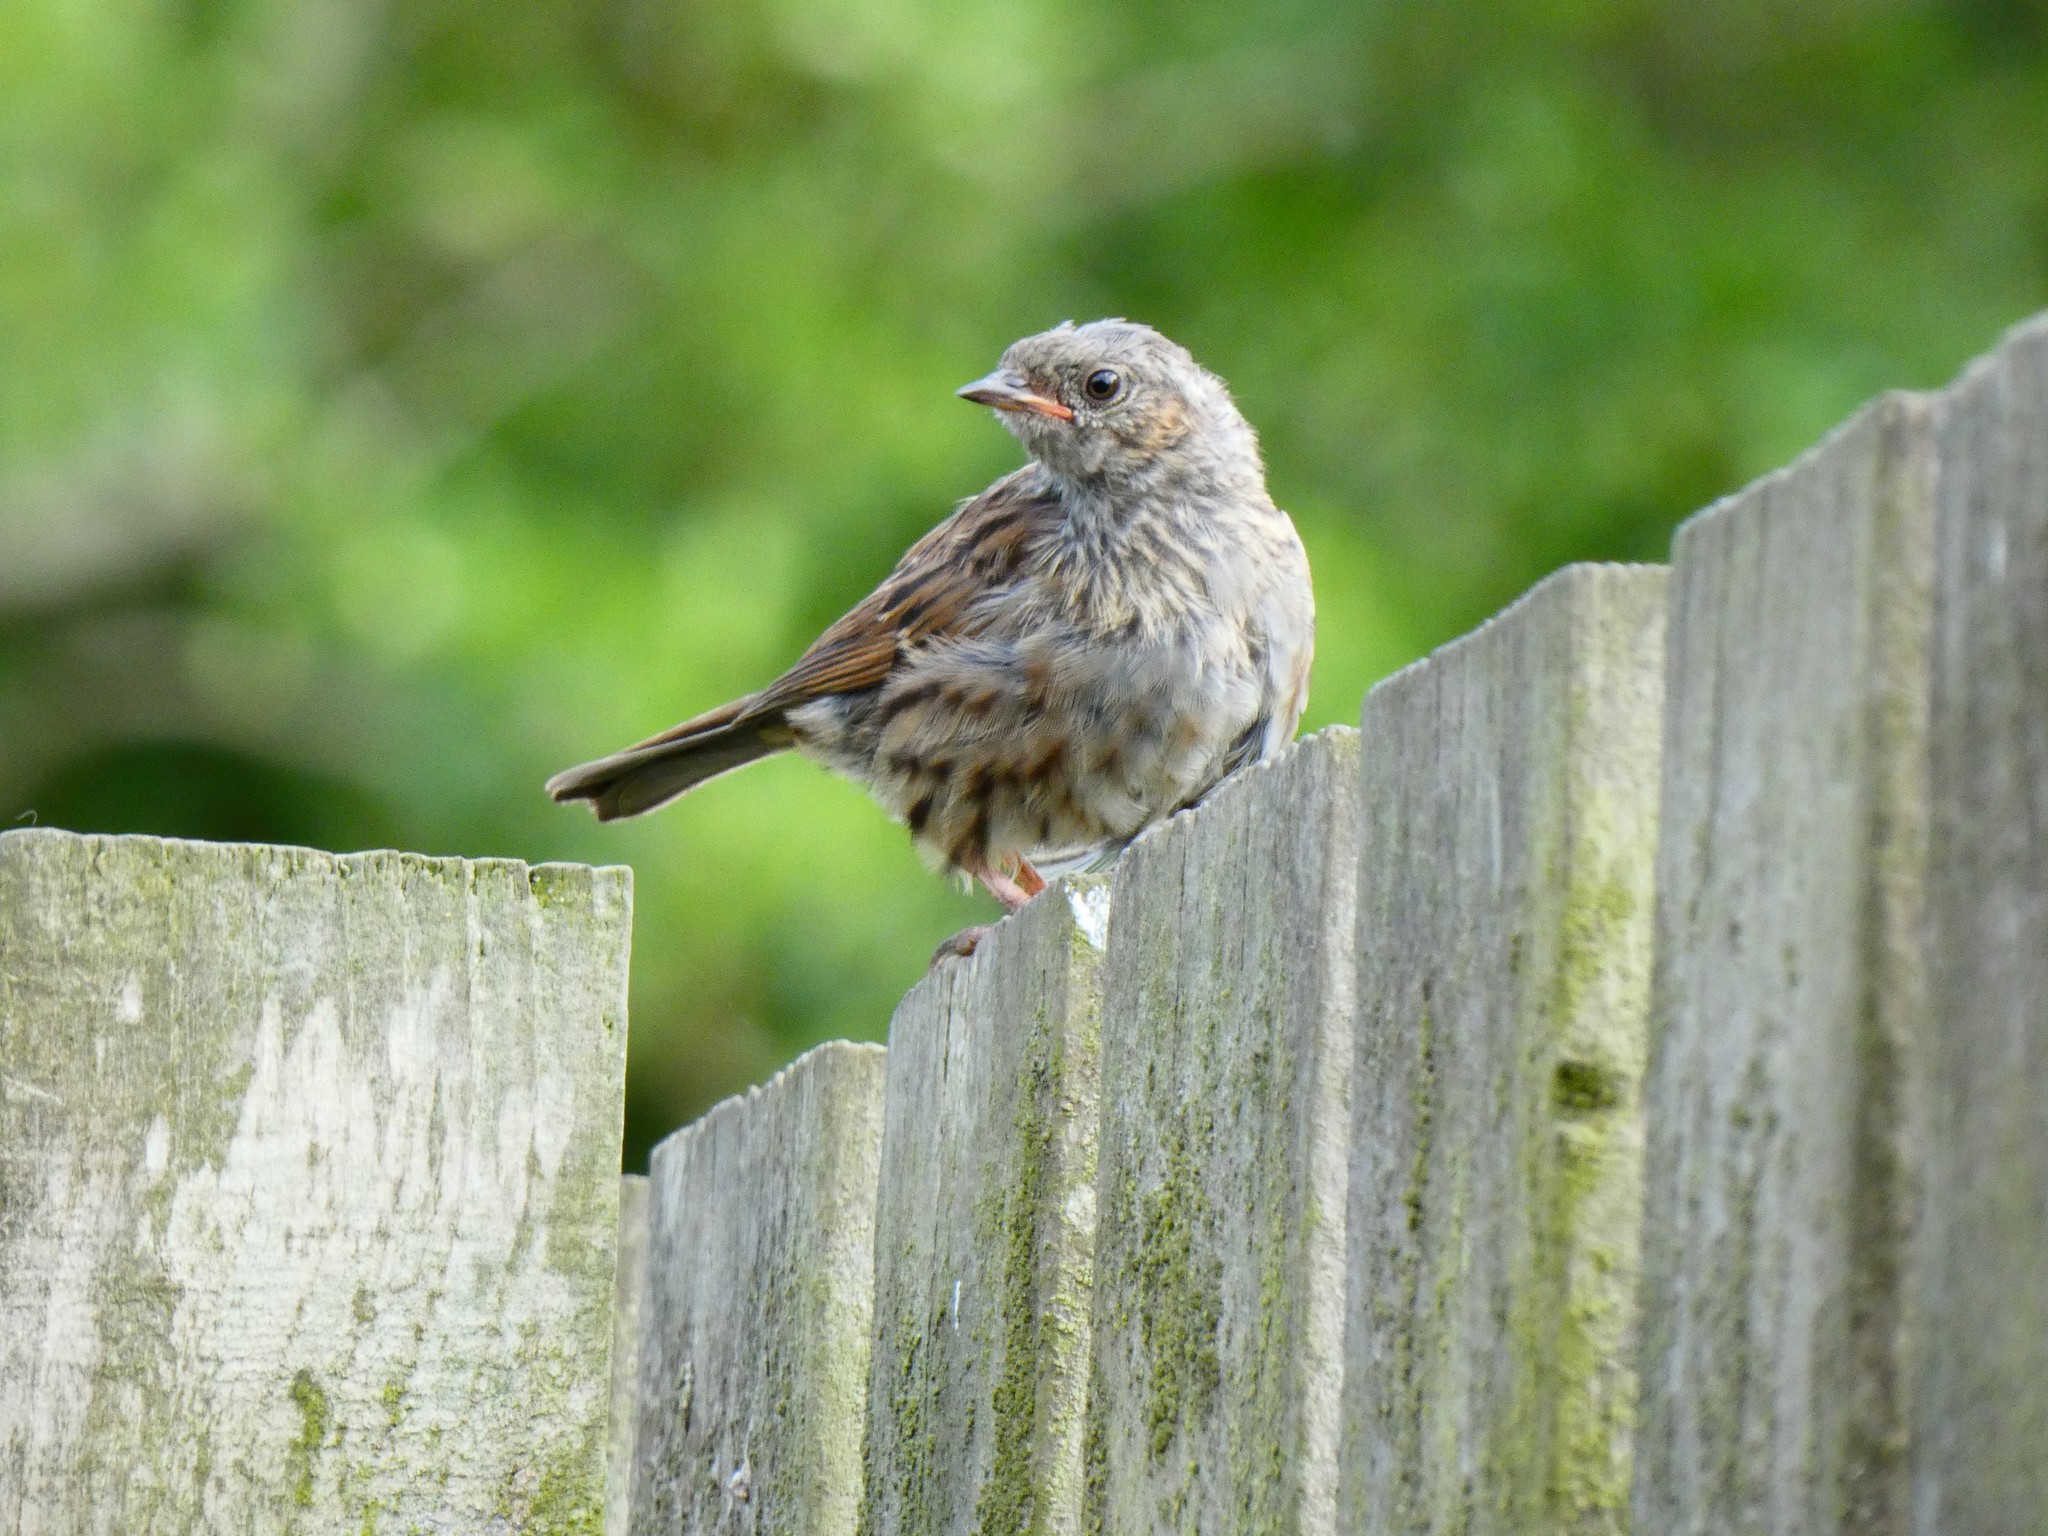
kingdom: Animalia
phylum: Chordata
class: Aves
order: Passeriformes
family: Prunellidae
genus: Prunella
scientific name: Prunella modularis
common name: Dunnock
